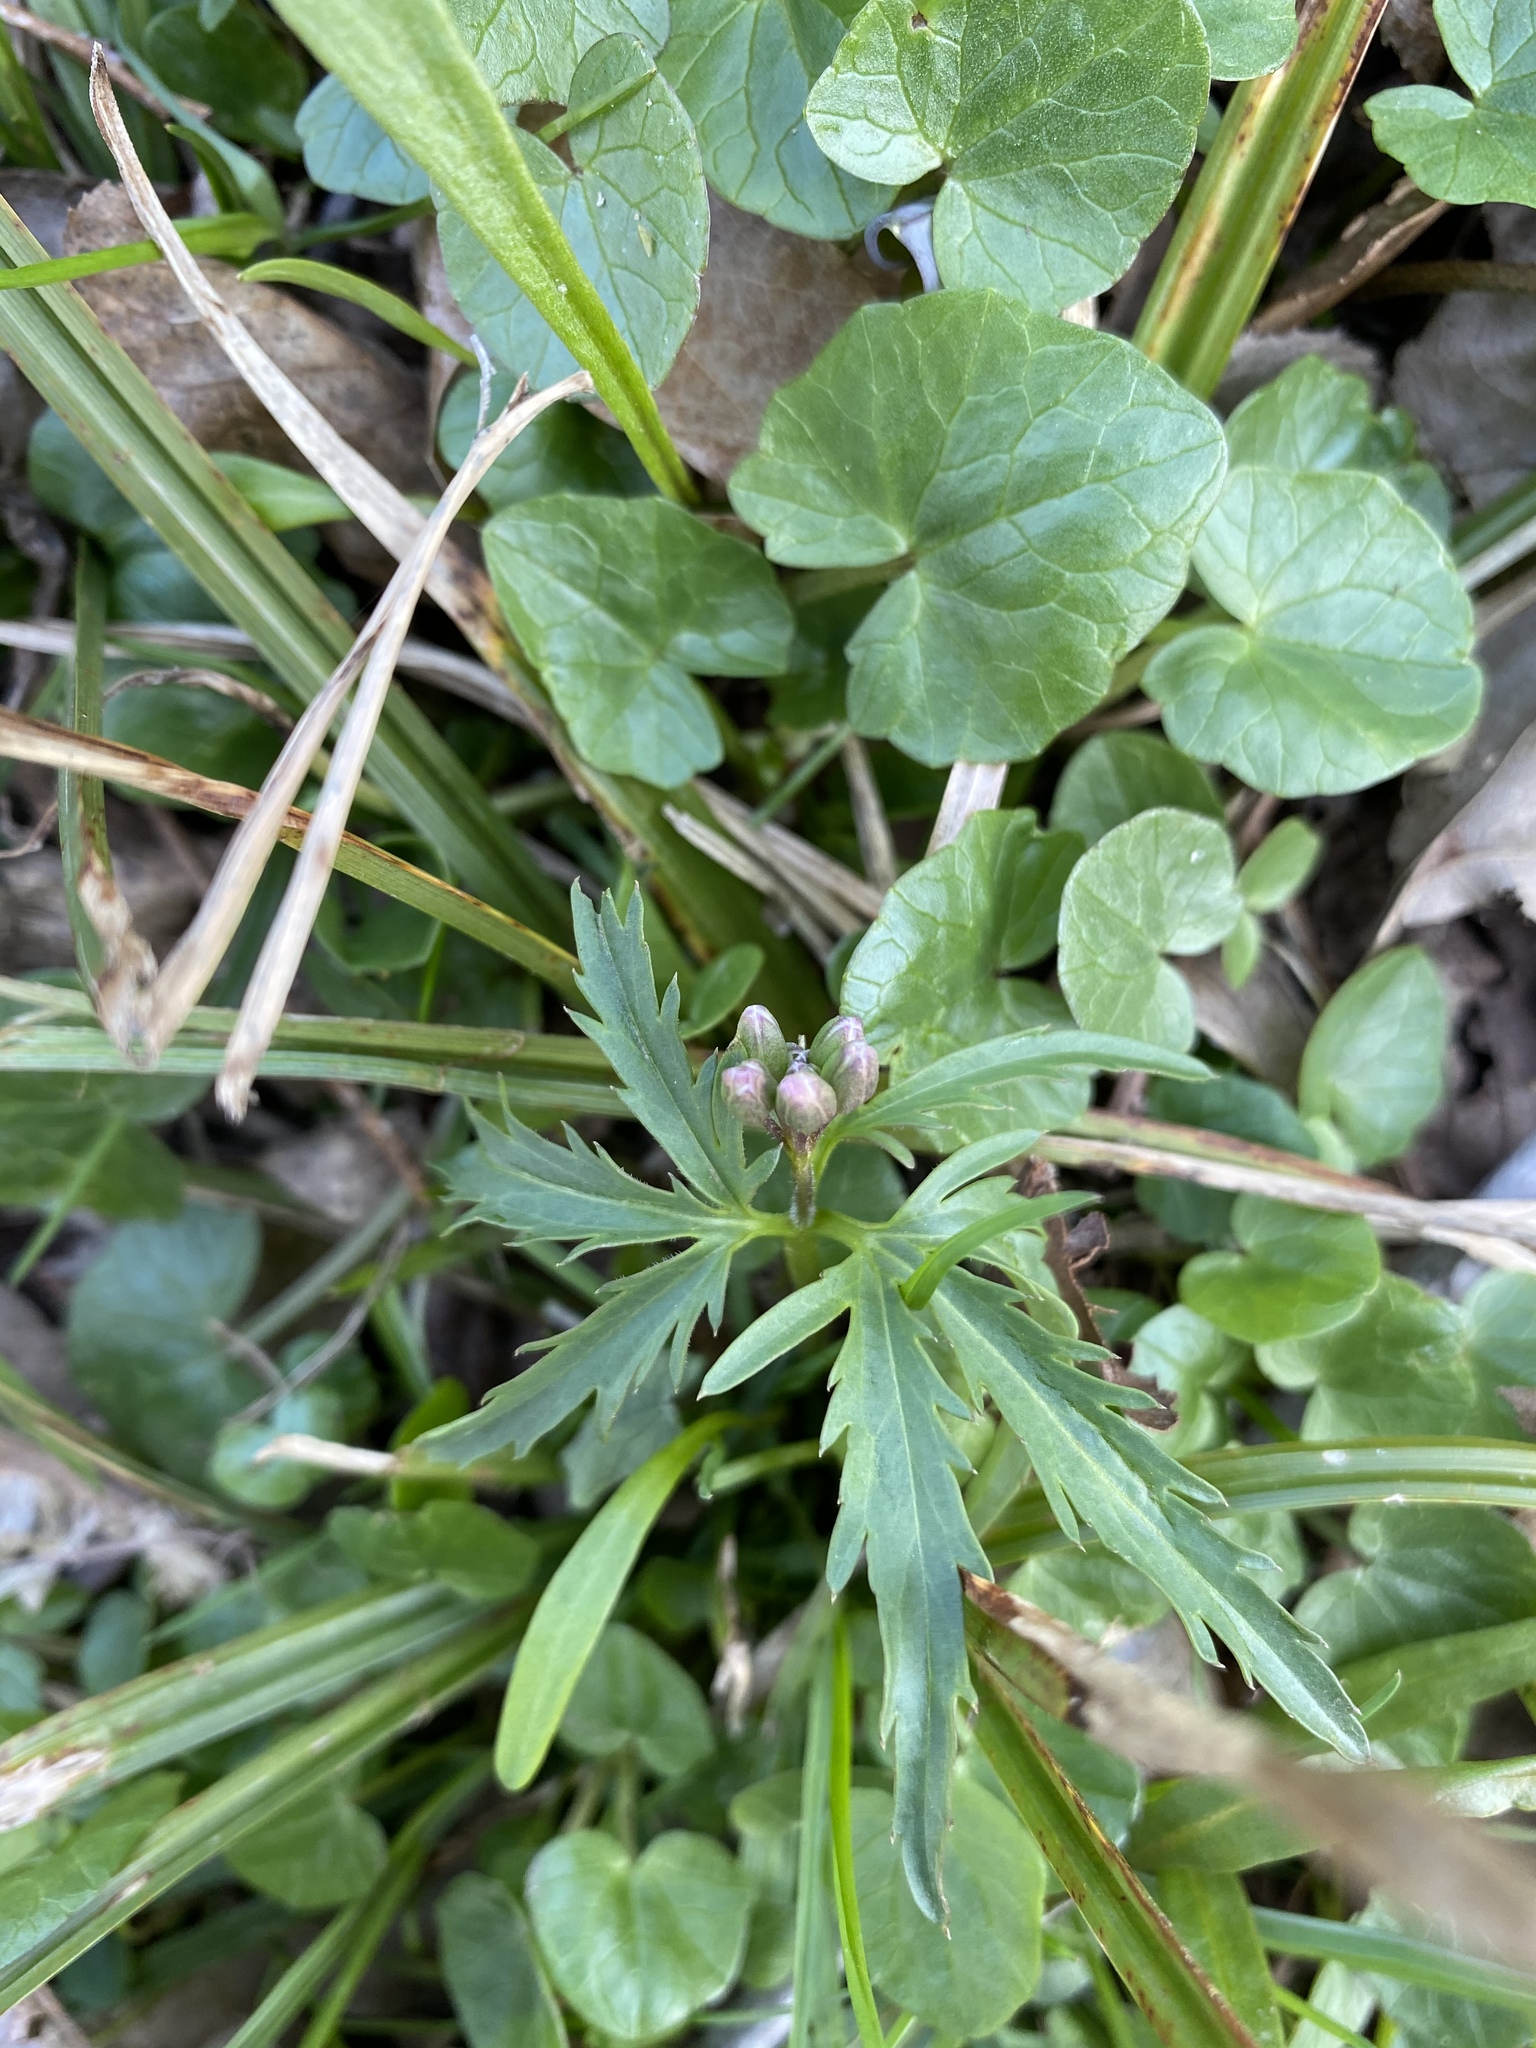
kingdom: Plantae
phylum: Tracheophyta
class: Magnoliopsida
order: Brassicales
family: Brassicaceae
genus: Cardamine
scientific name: Cardamine concatenata
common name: Cut-leaf toothcup
